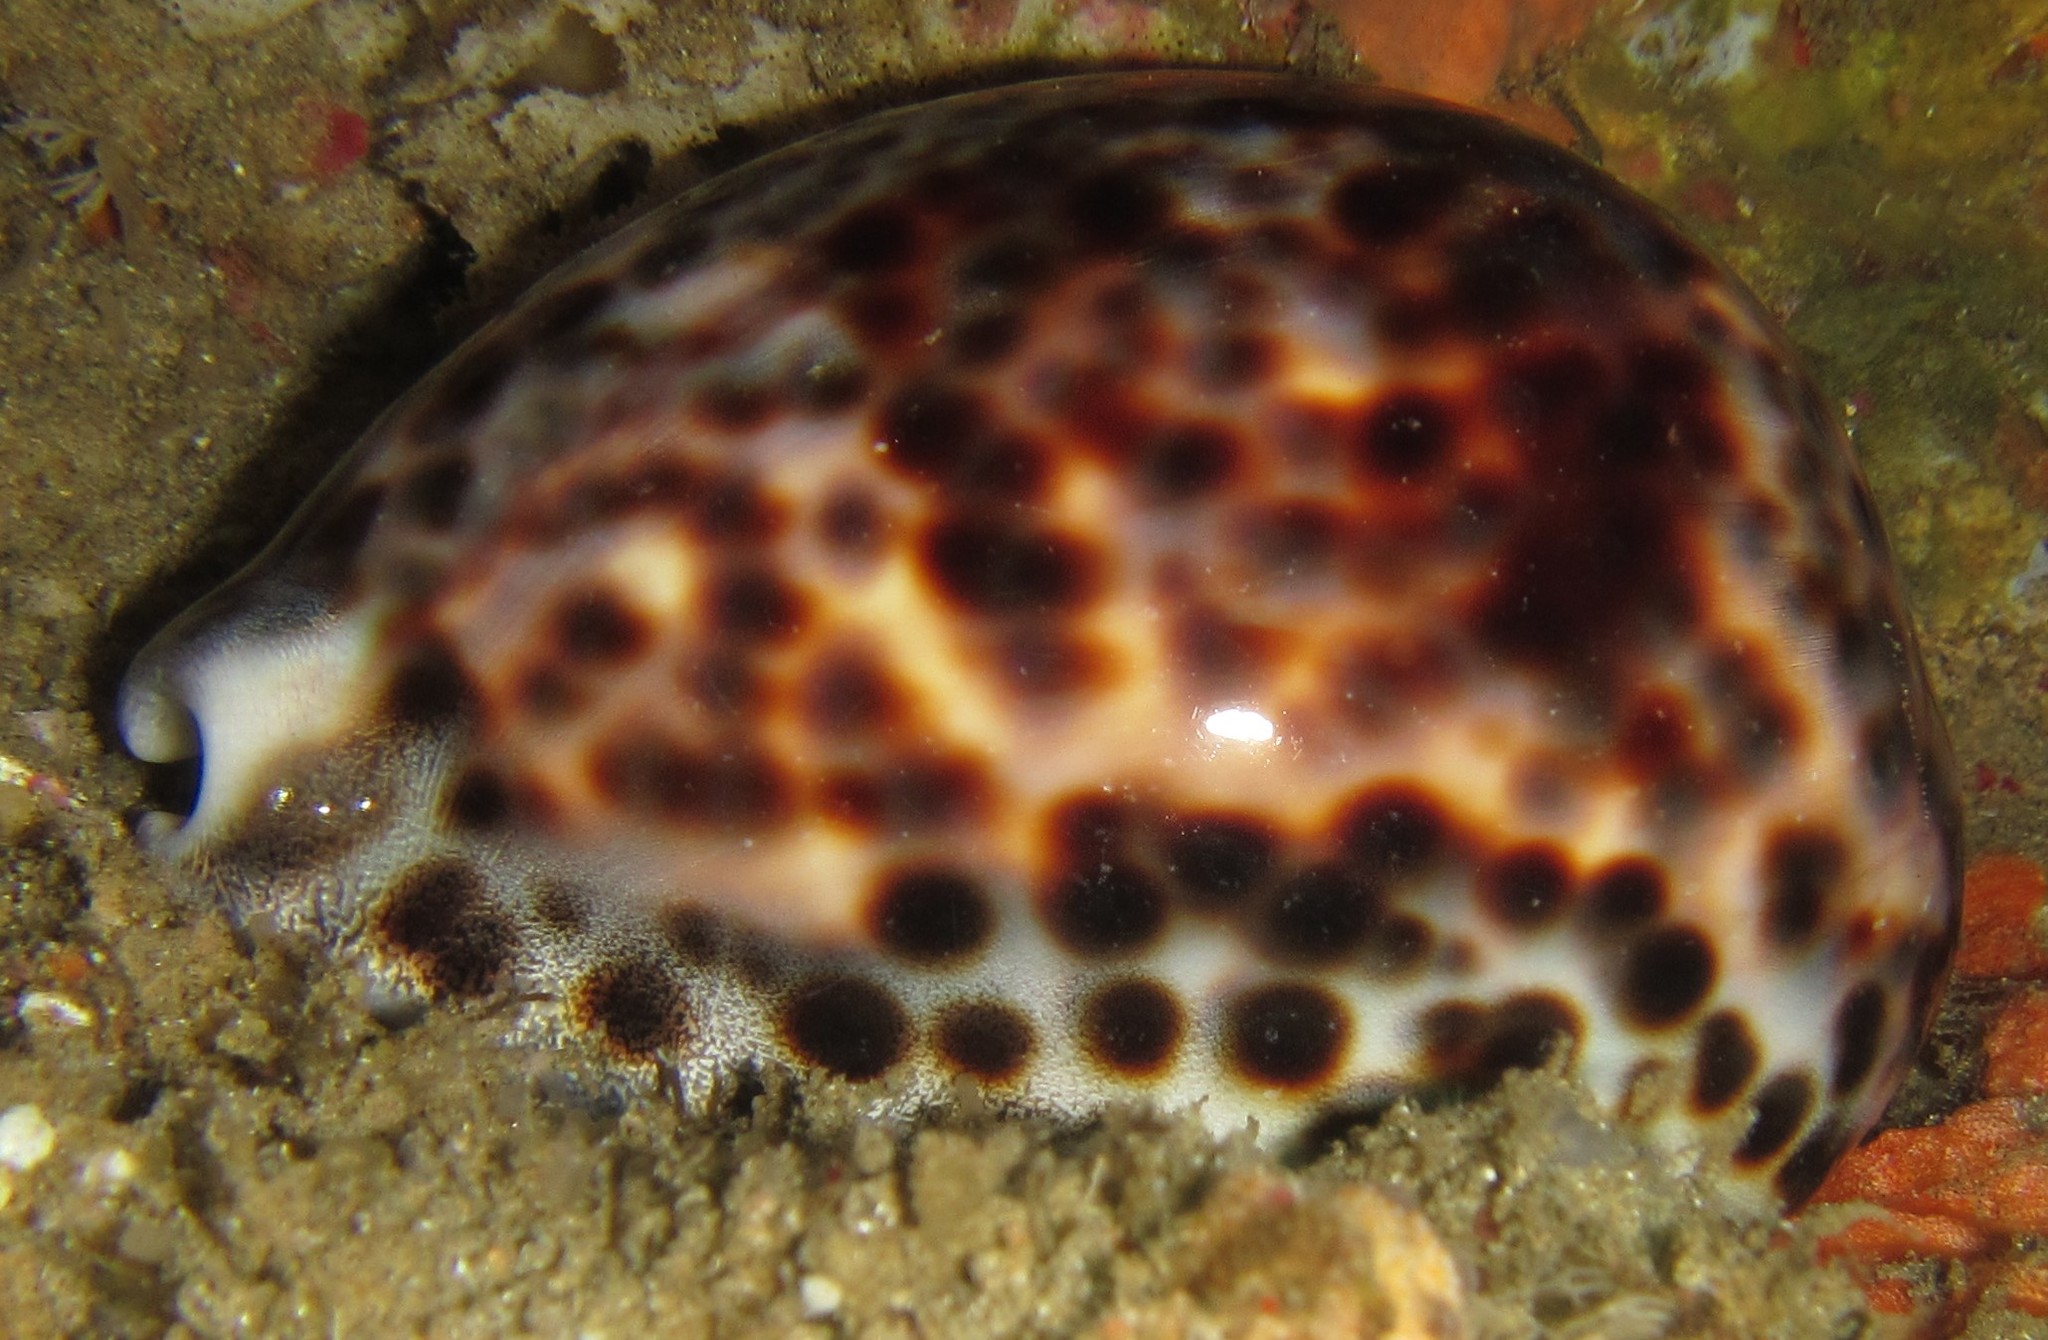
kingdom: Animalia
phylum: Mollusca
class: Gastropoda
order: Littorinimorpha
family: Cypraeidae
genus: Cypraea
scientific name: Cypraea tigris
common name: Tiger cowrie
